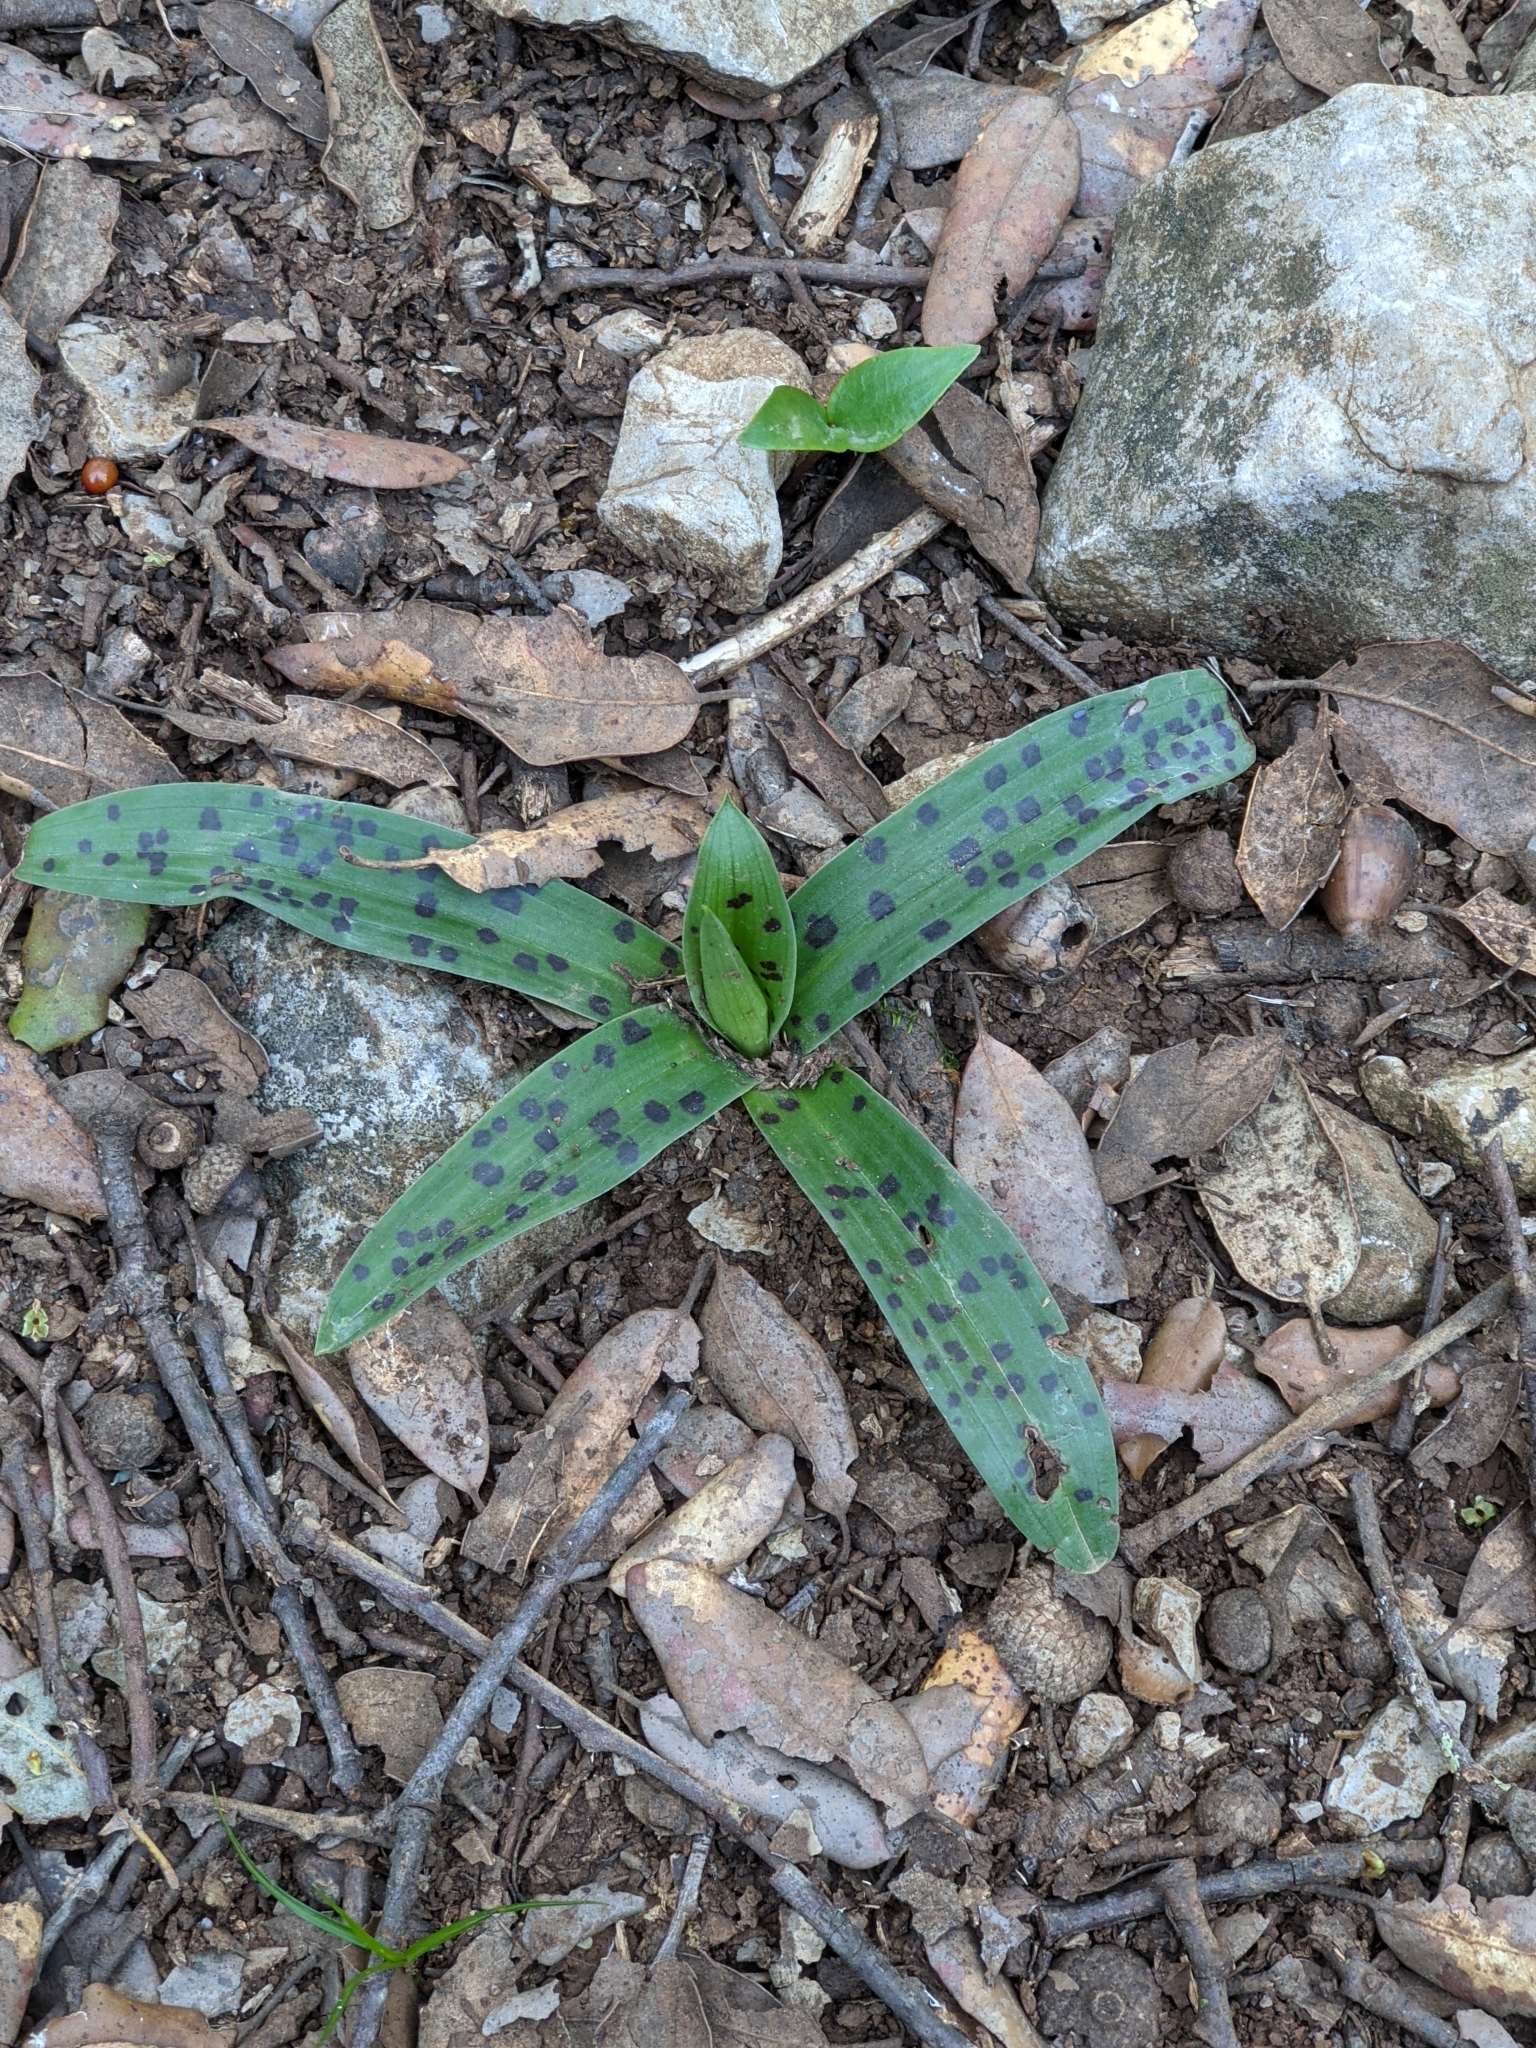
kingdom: Plantae
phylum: Tracheophyta
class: Liliopsida
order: Asparagales
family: Orchidaceae
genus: Orchis
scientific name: Orchis provincialis
